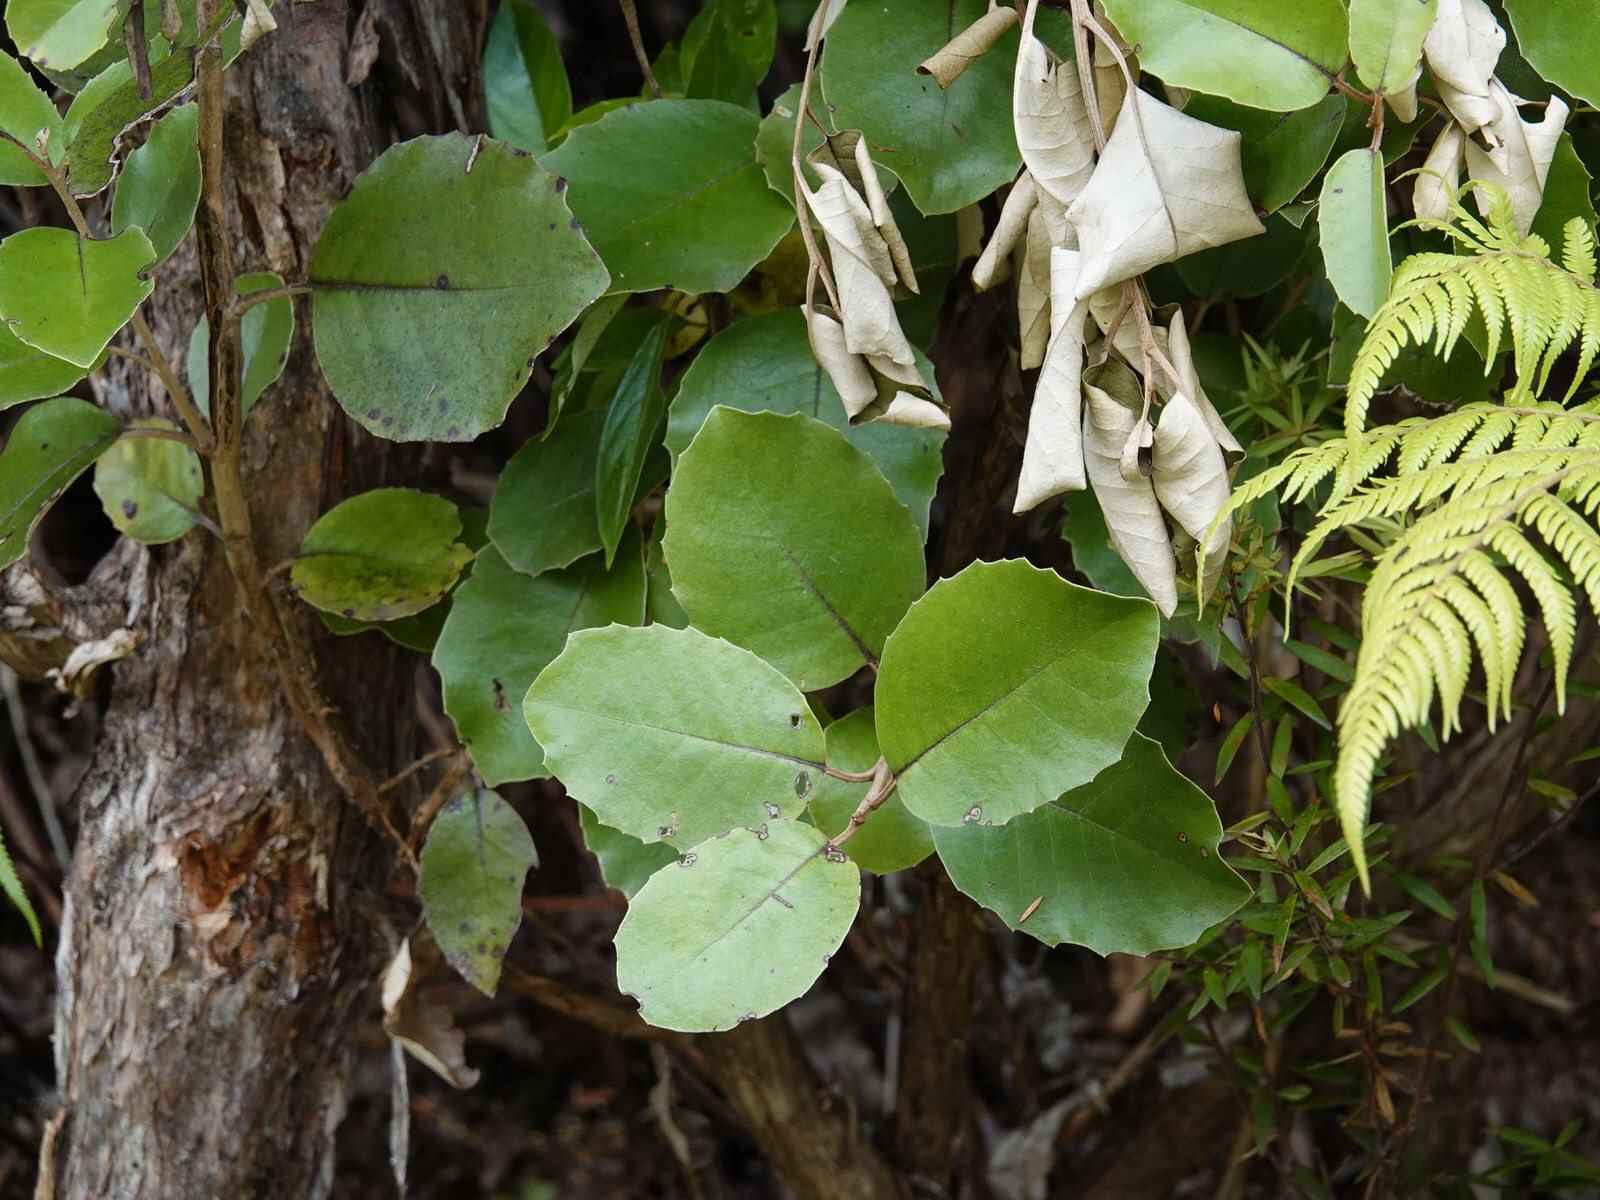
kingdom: Plantae
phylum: Tracheophyta
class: Magnoliopsida
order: Asterales
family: Asteraceae
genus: Olearia
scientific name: Olearia furfuracea
